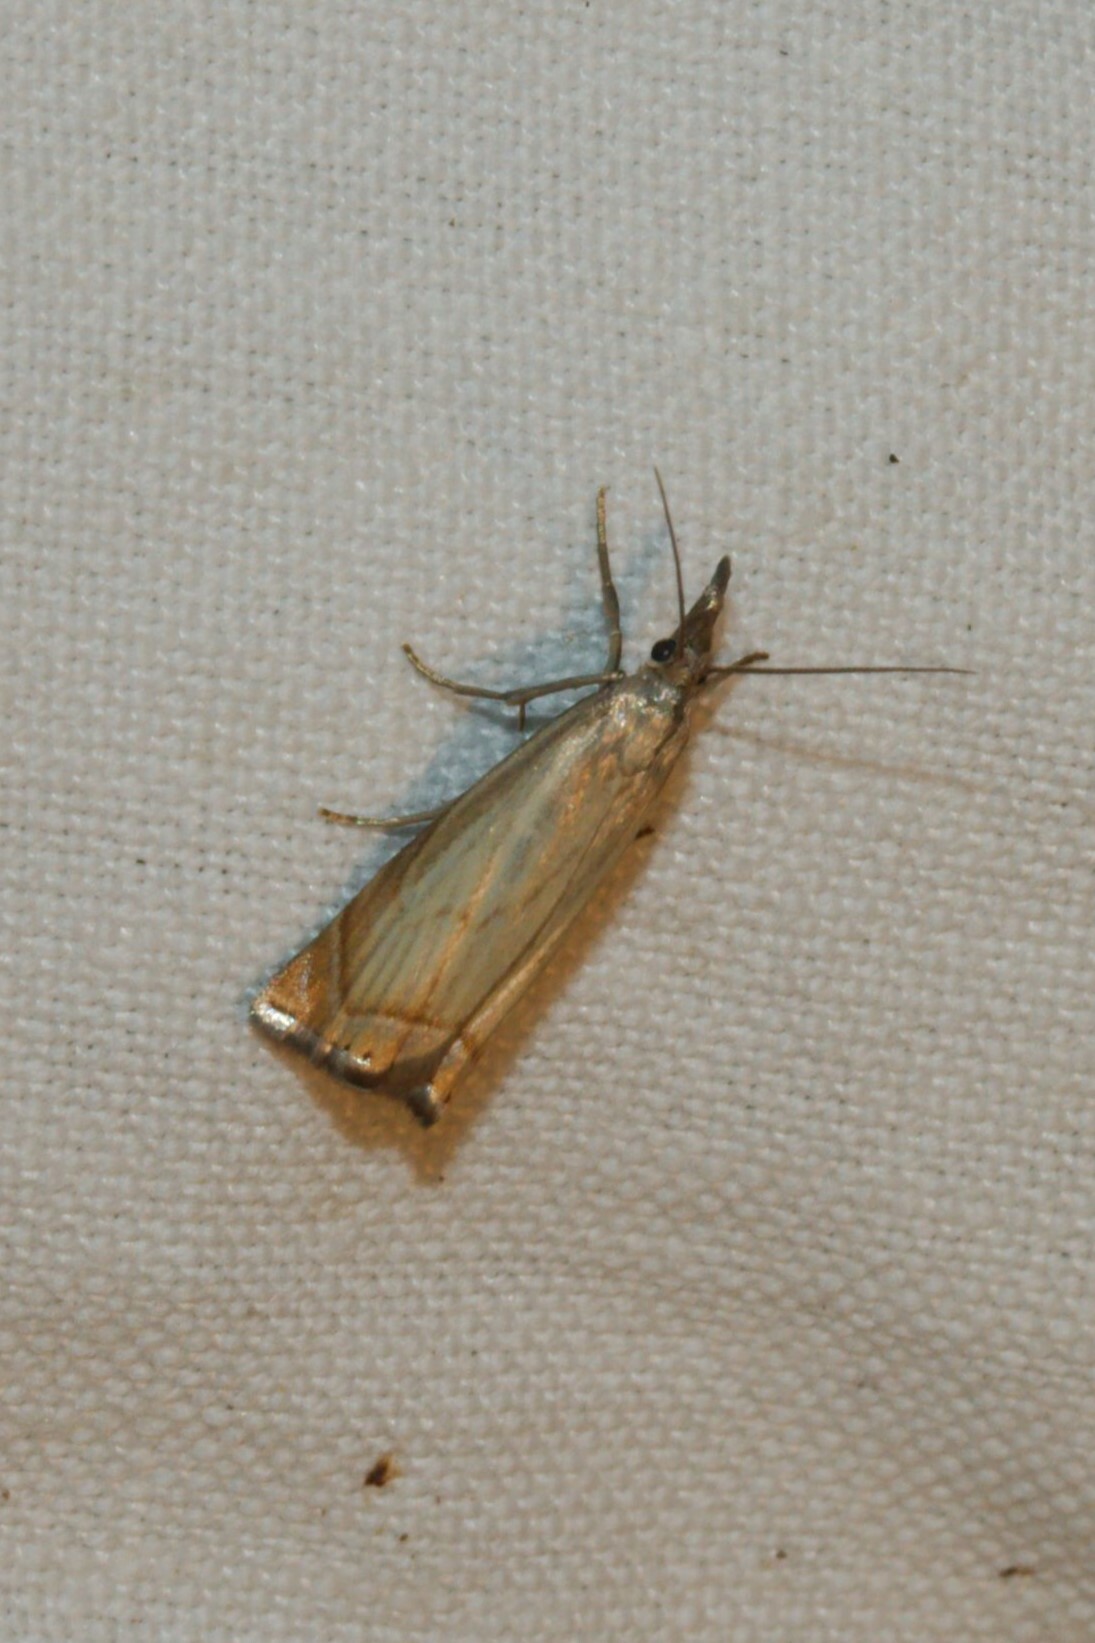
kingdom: Animalia
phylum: Arthropoda
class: Insecta
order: Lepidoptera
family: Crambidae
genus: Chrysoteuchia
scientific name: Chrysoteuchia culmella
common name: Garden grass-veneer
